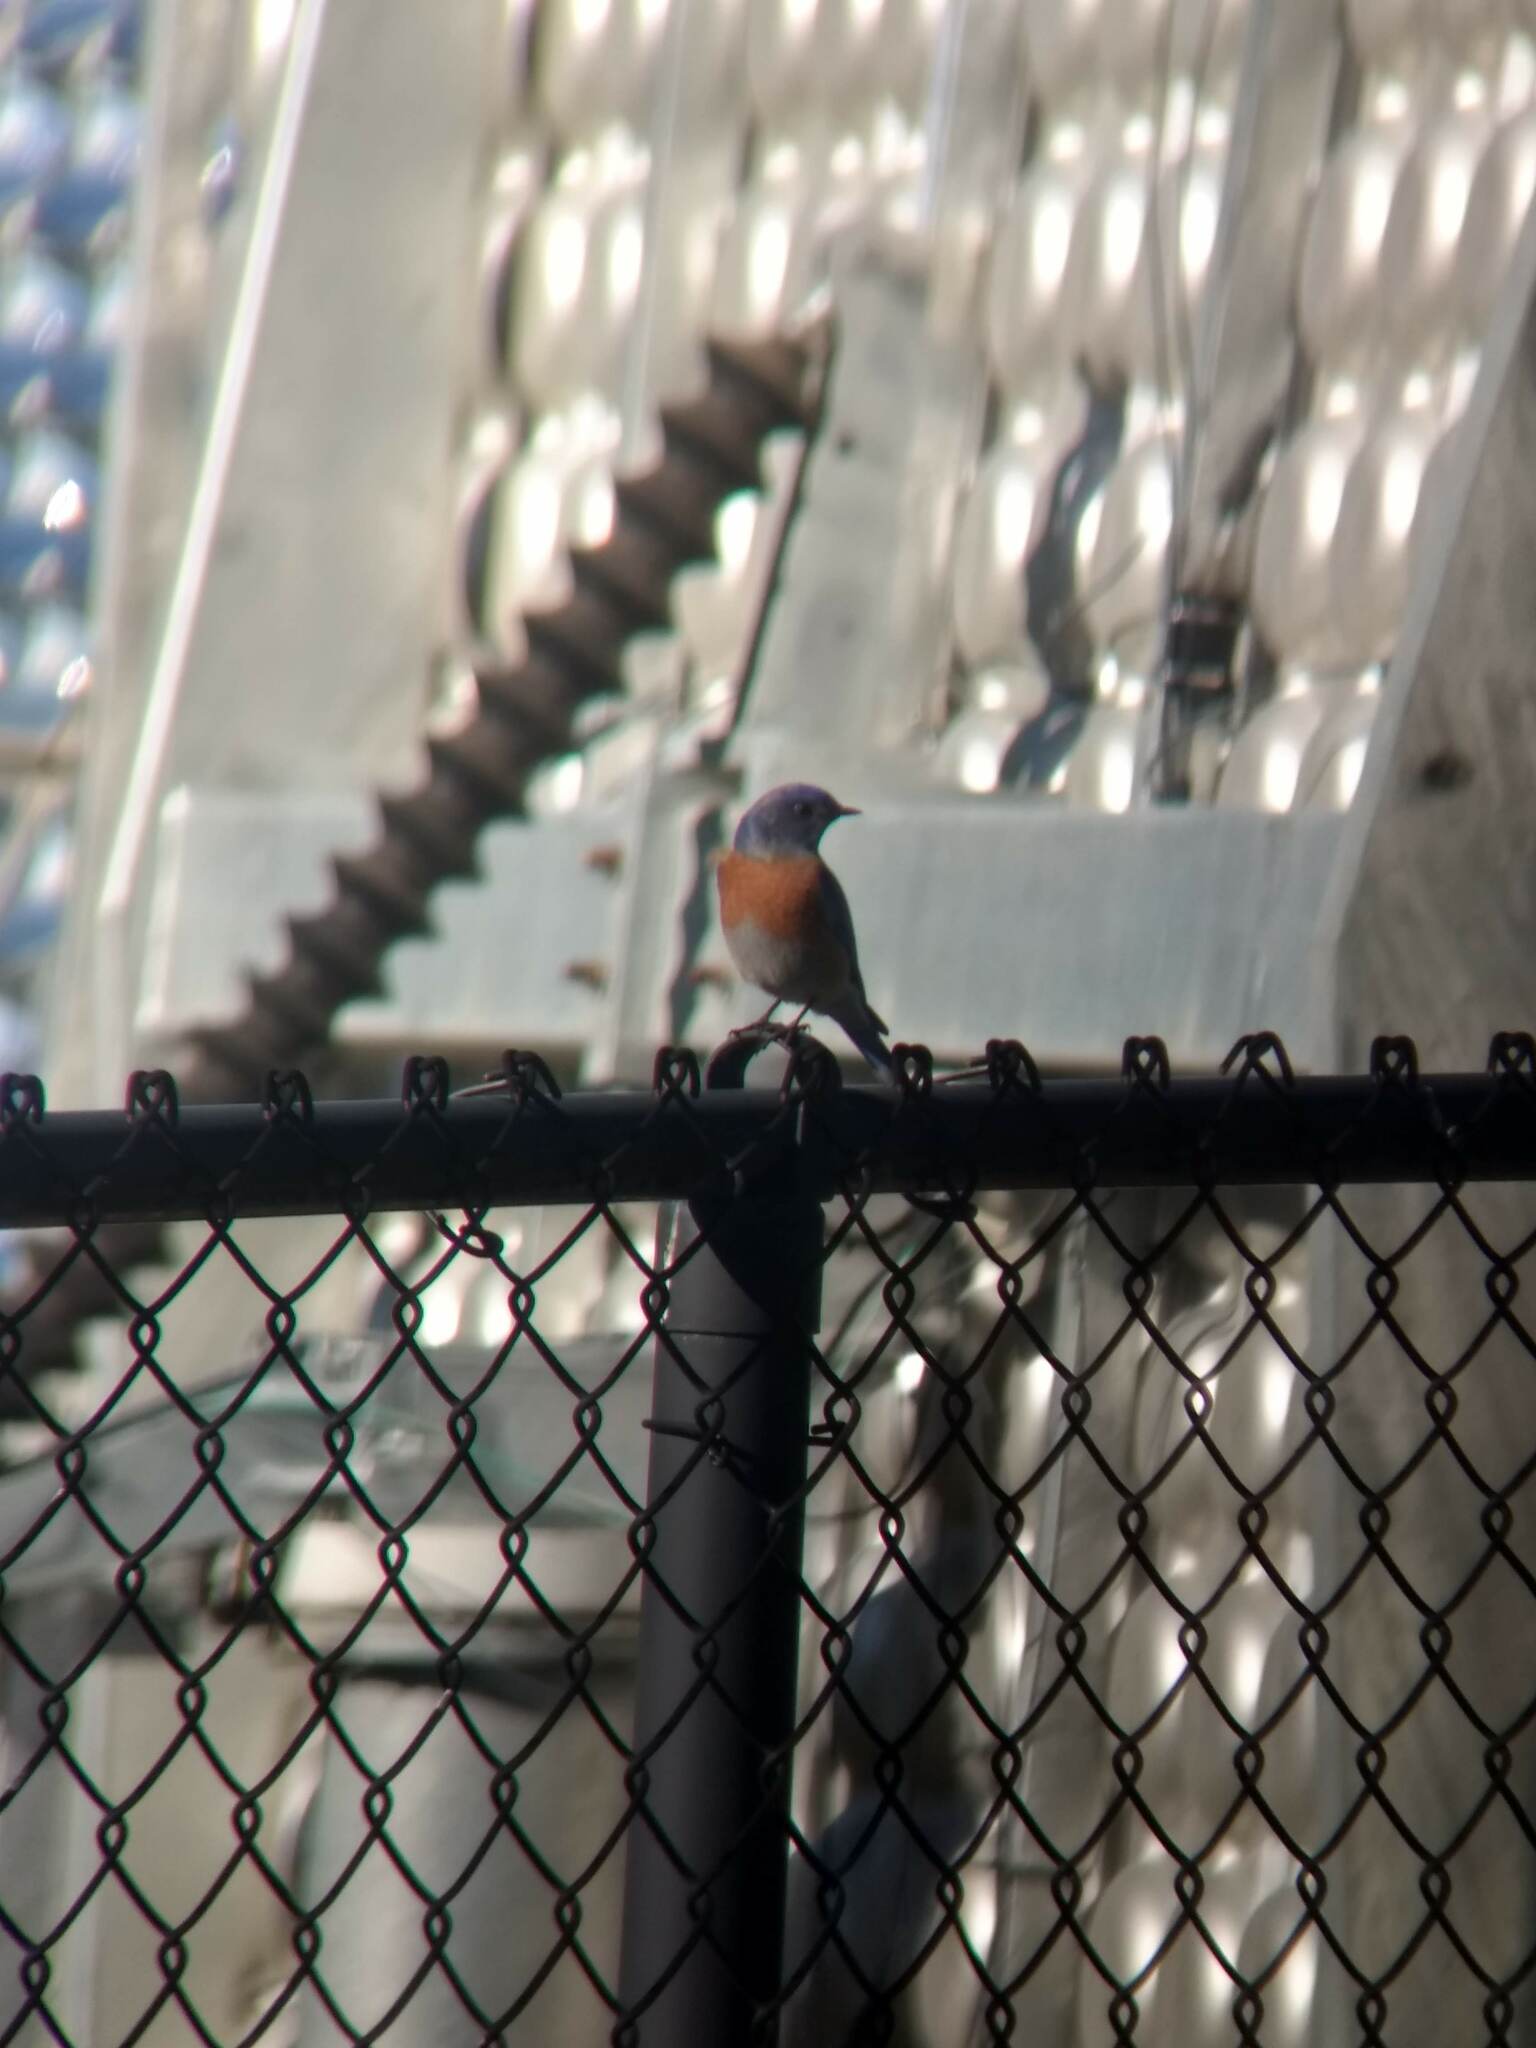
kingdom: Animalia
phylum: Chordata
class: Aves
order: Passeriformes
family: Turdidae
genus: Sialia
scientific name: Sialia mexicana
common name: Western bluebird
